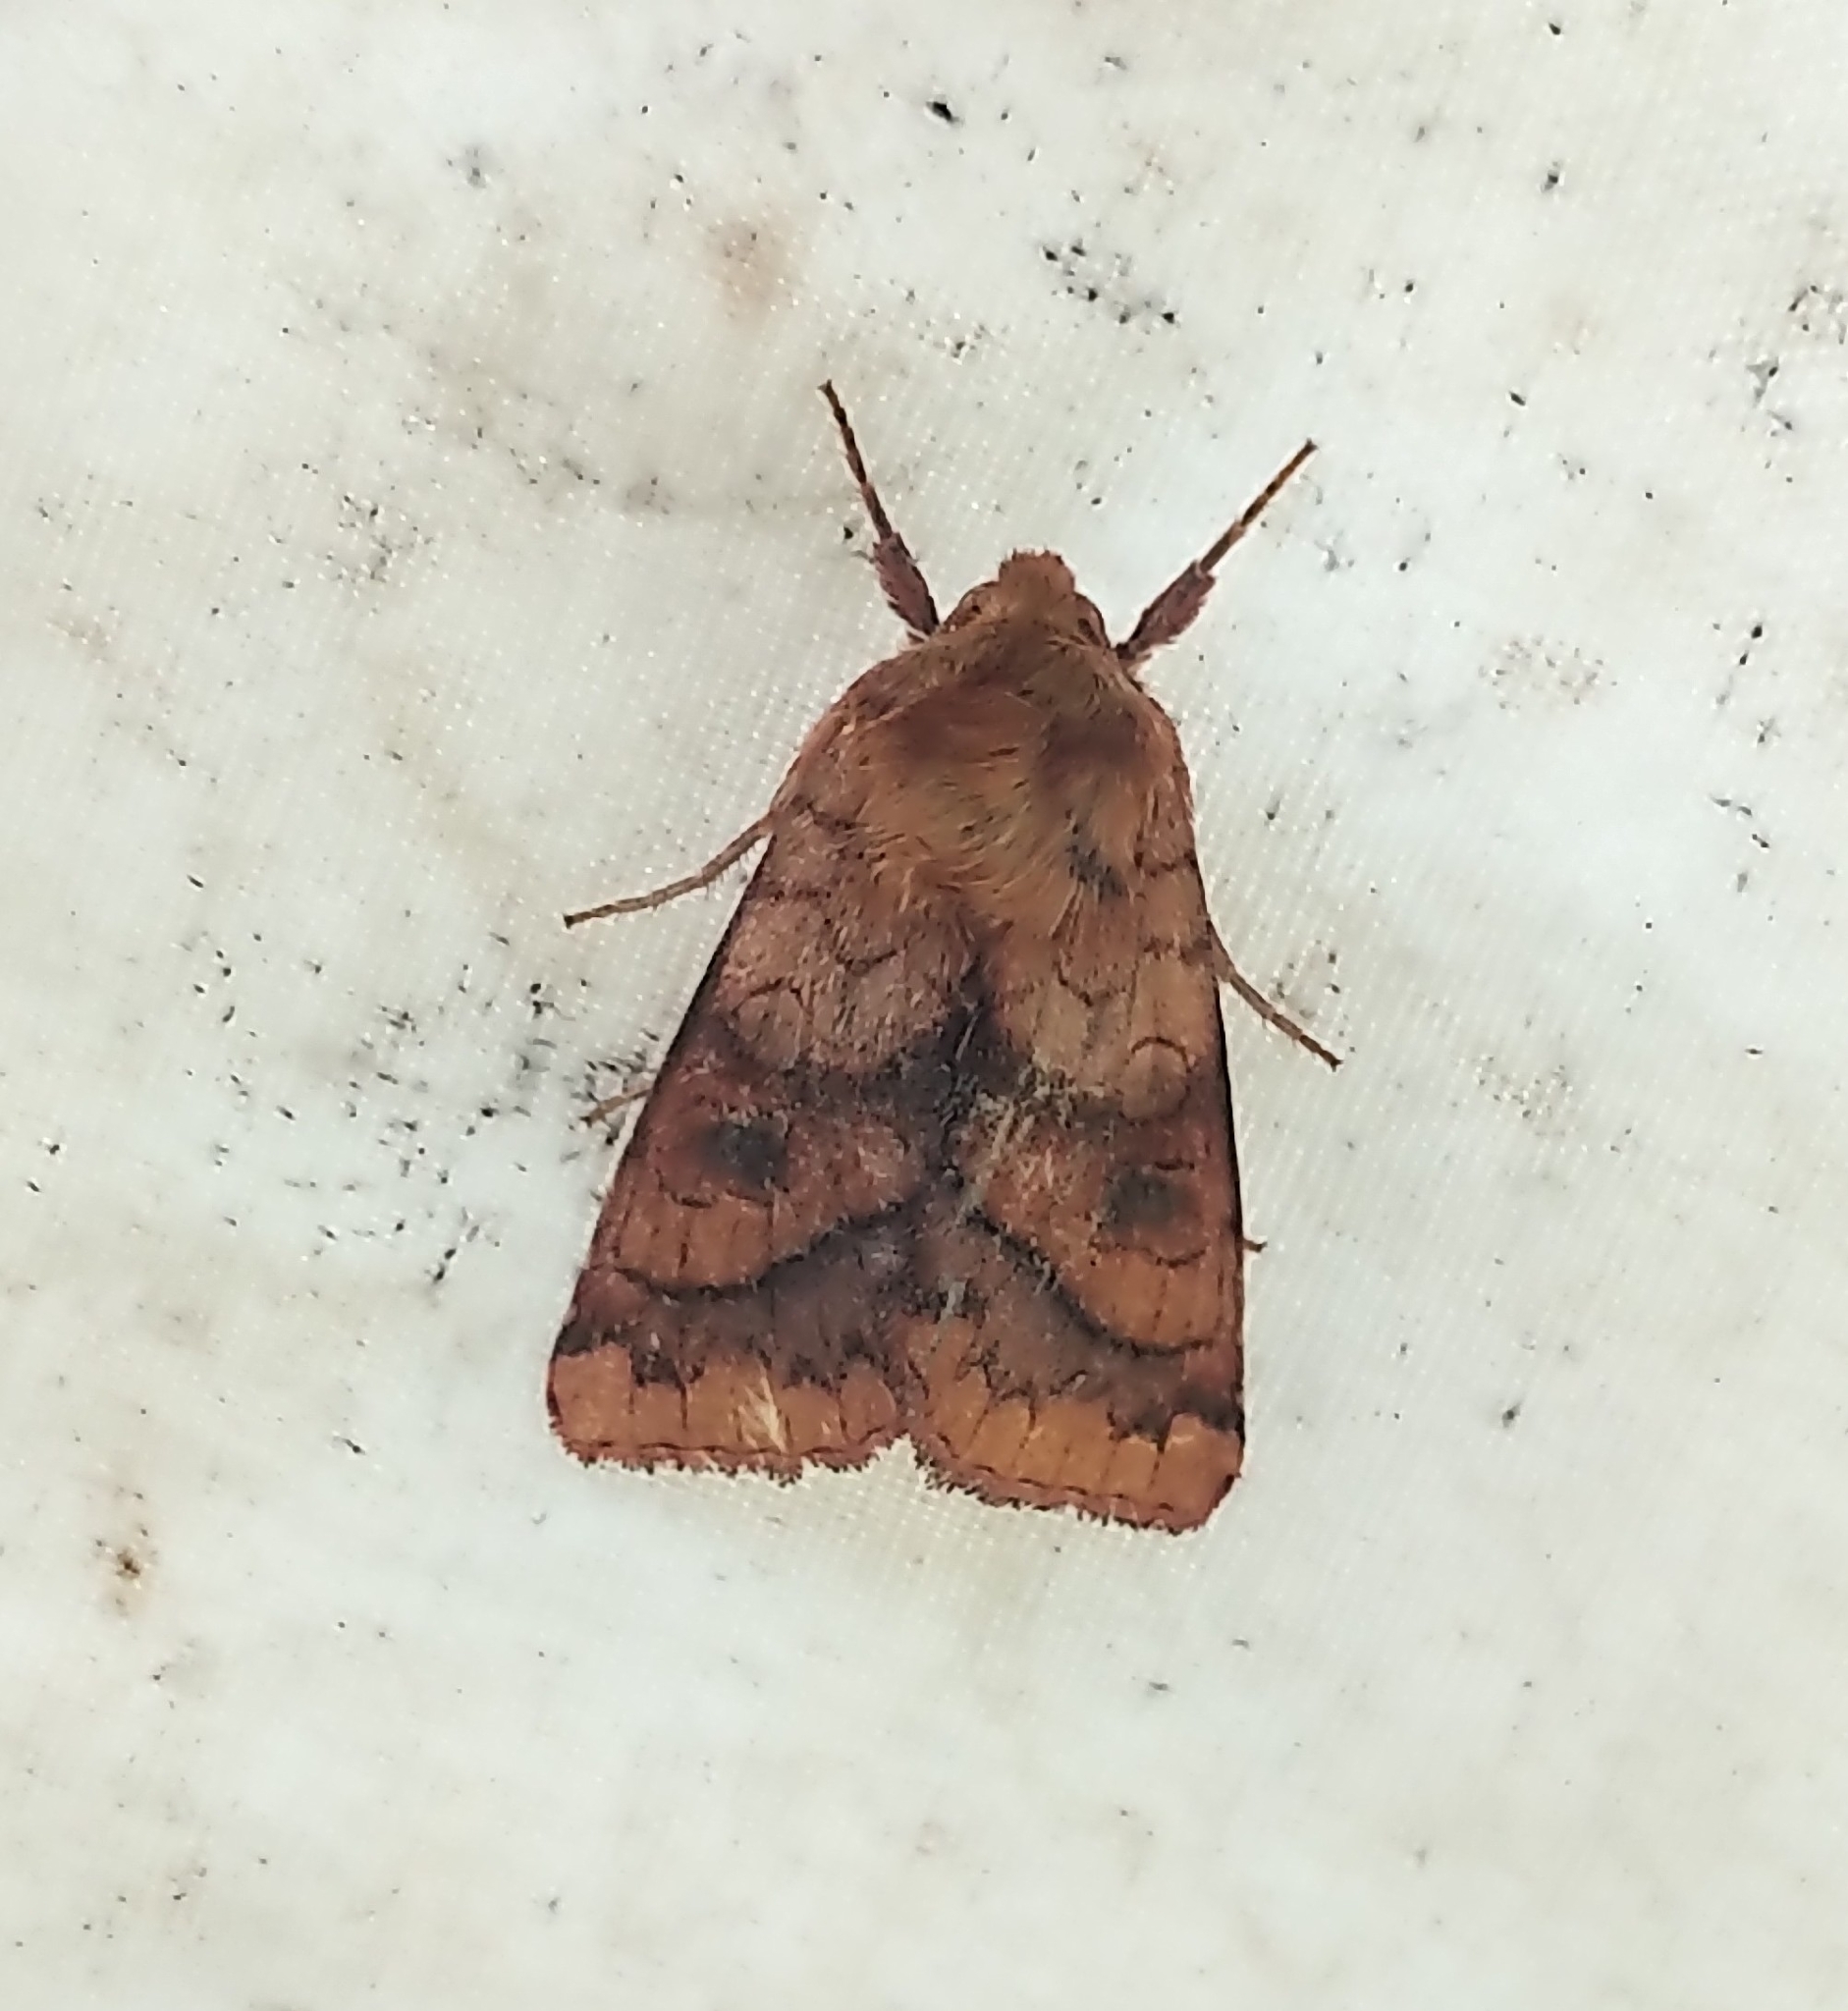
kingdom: Animalia
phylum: Arthropoda
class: Insecta
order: Lepidoptera
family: Noctuidae
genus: Pyrrhia
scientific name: Pyrrhia exprimens
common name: Purple-lined sallow
